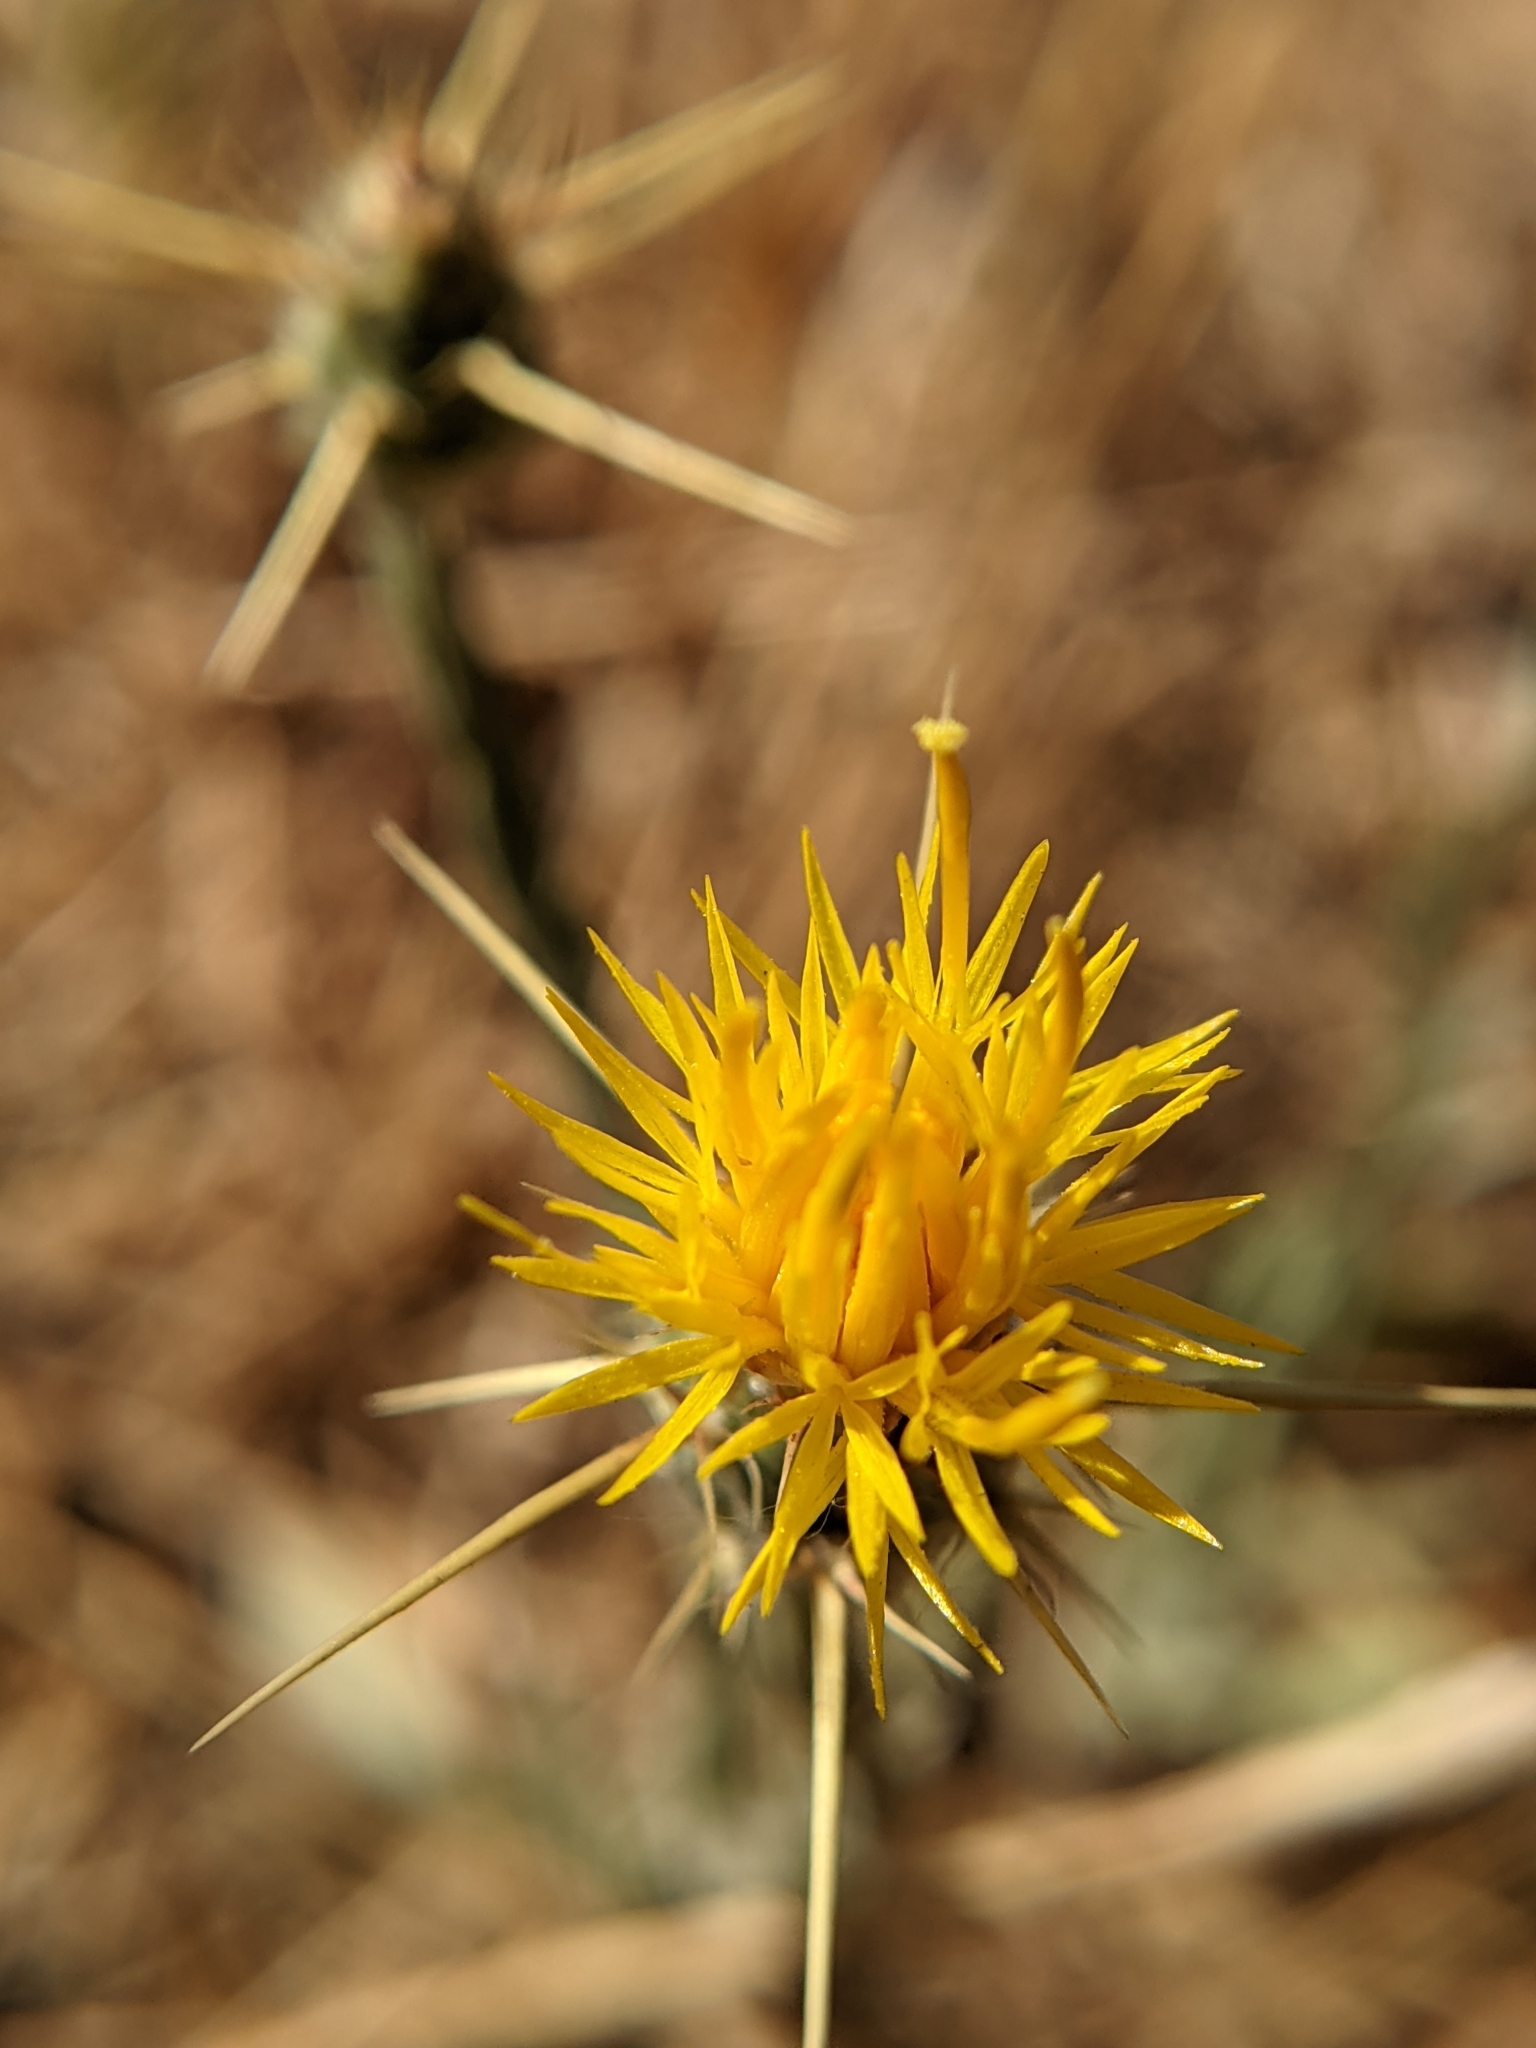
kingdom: Plantae
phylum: Tracheophyta
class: Magnoliopsida
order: Asterales
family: Asteraceae
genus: Centaurea
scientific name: Centaurea solstitialis
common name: Yellow star-thistle
